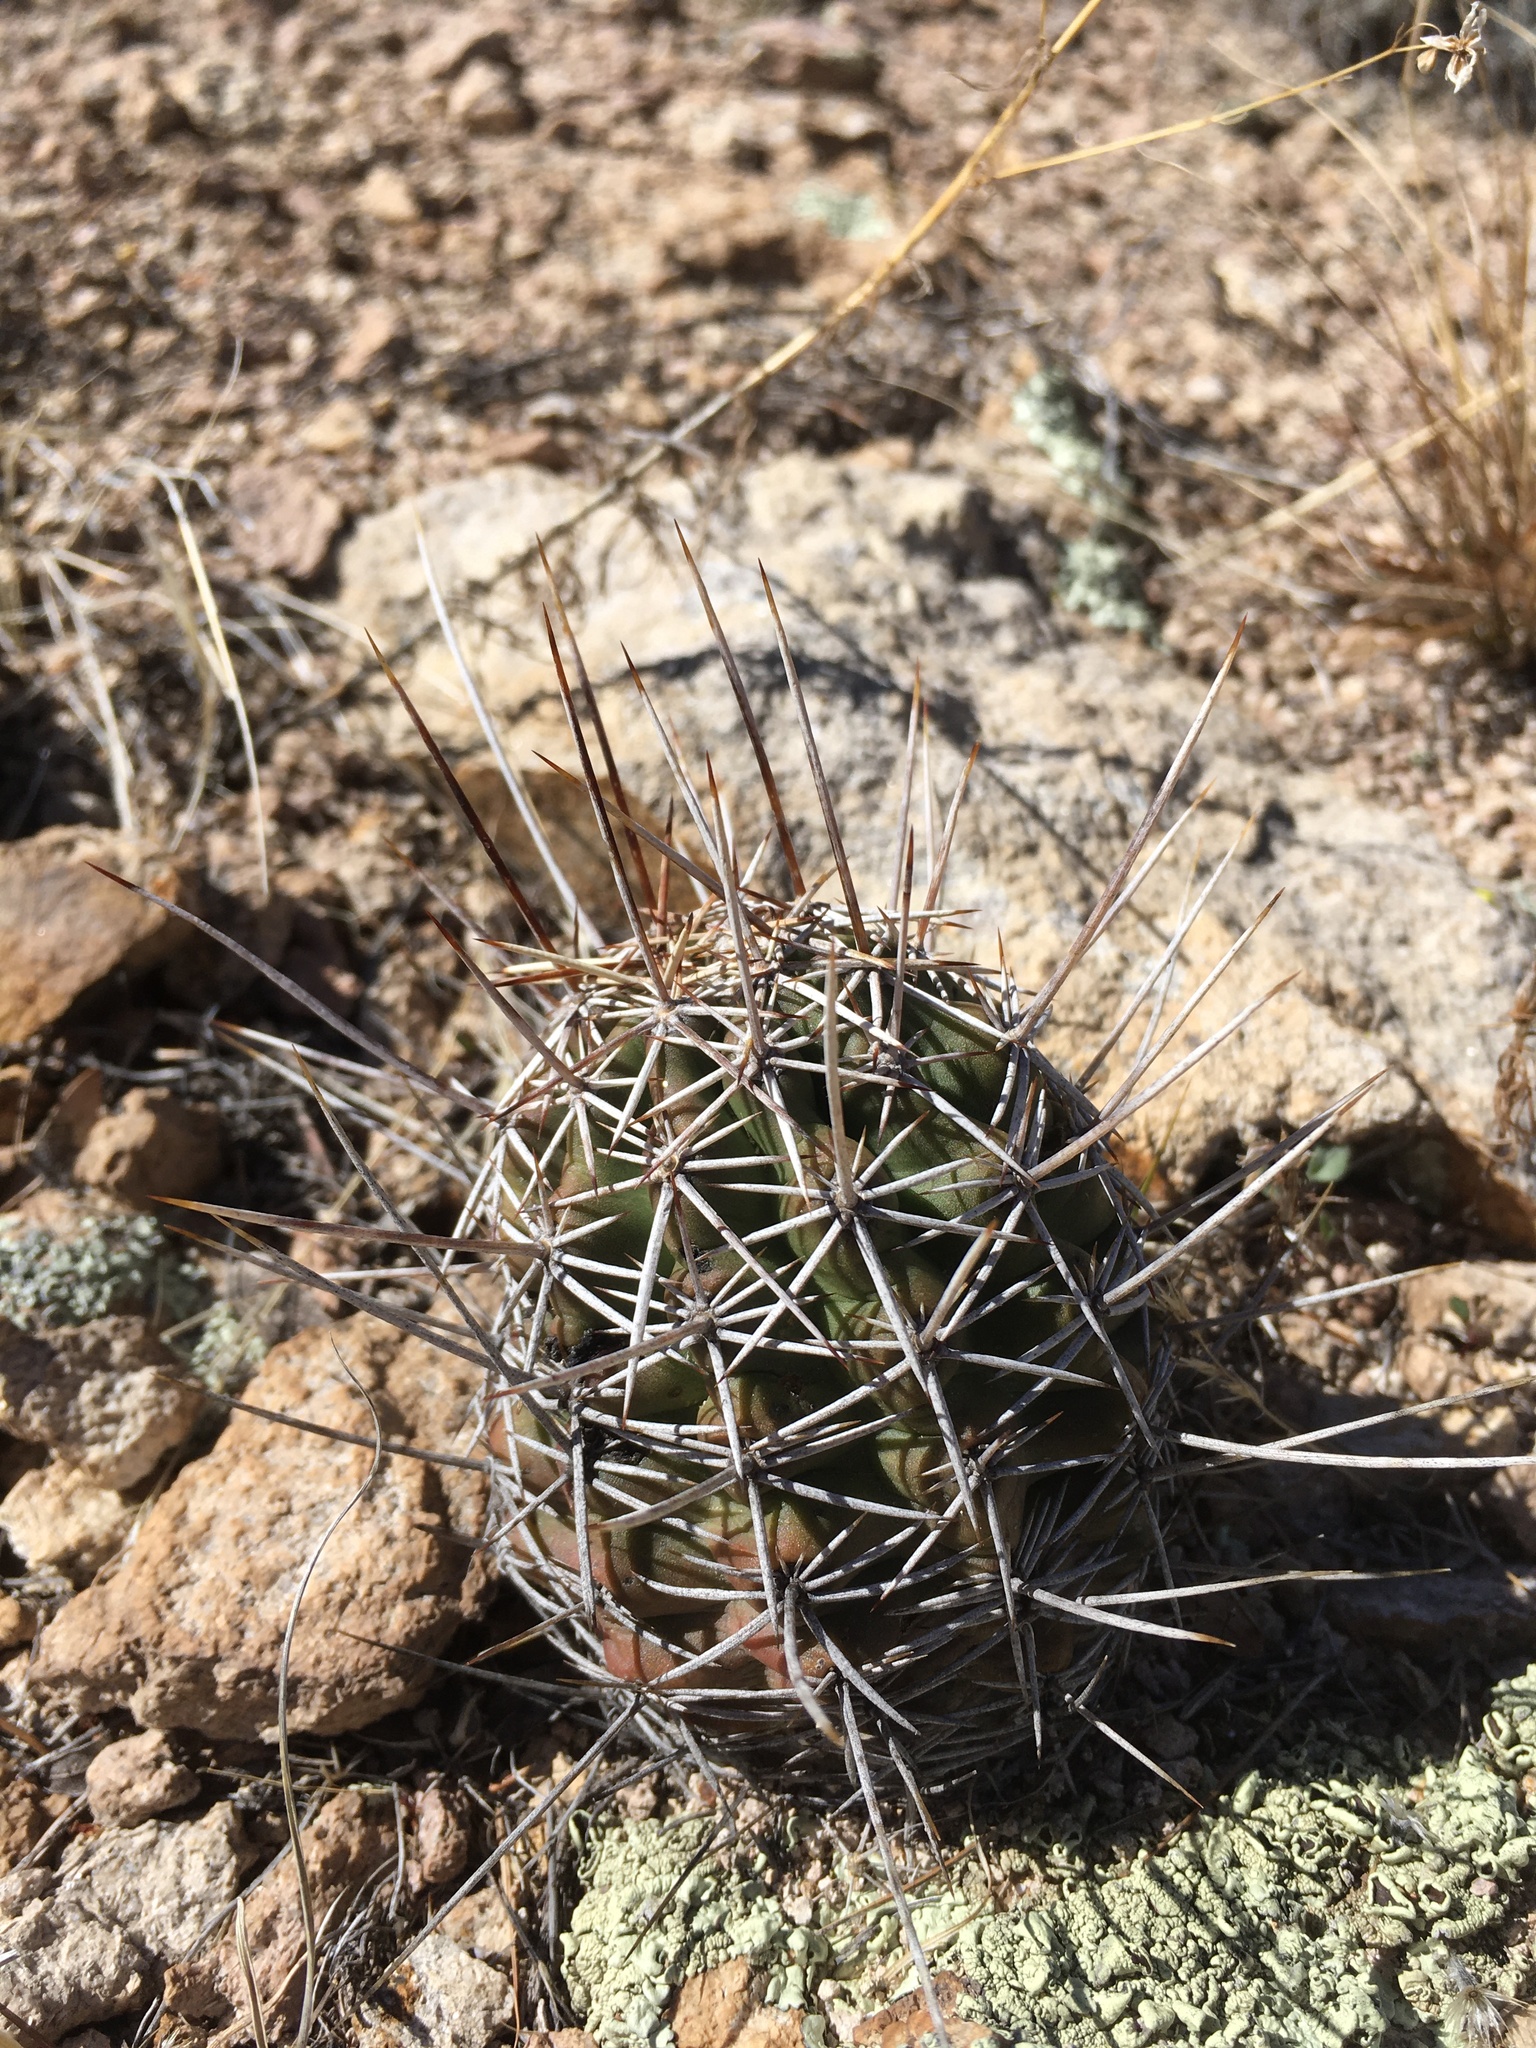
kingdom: Plantae
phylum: Tracheophyta
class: Magnoliopsida
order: Caryophyllales
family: Cactaceae
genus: Echinocereus
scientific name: Echinocereus fendleri
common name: Fendler's hedgehog cactus
